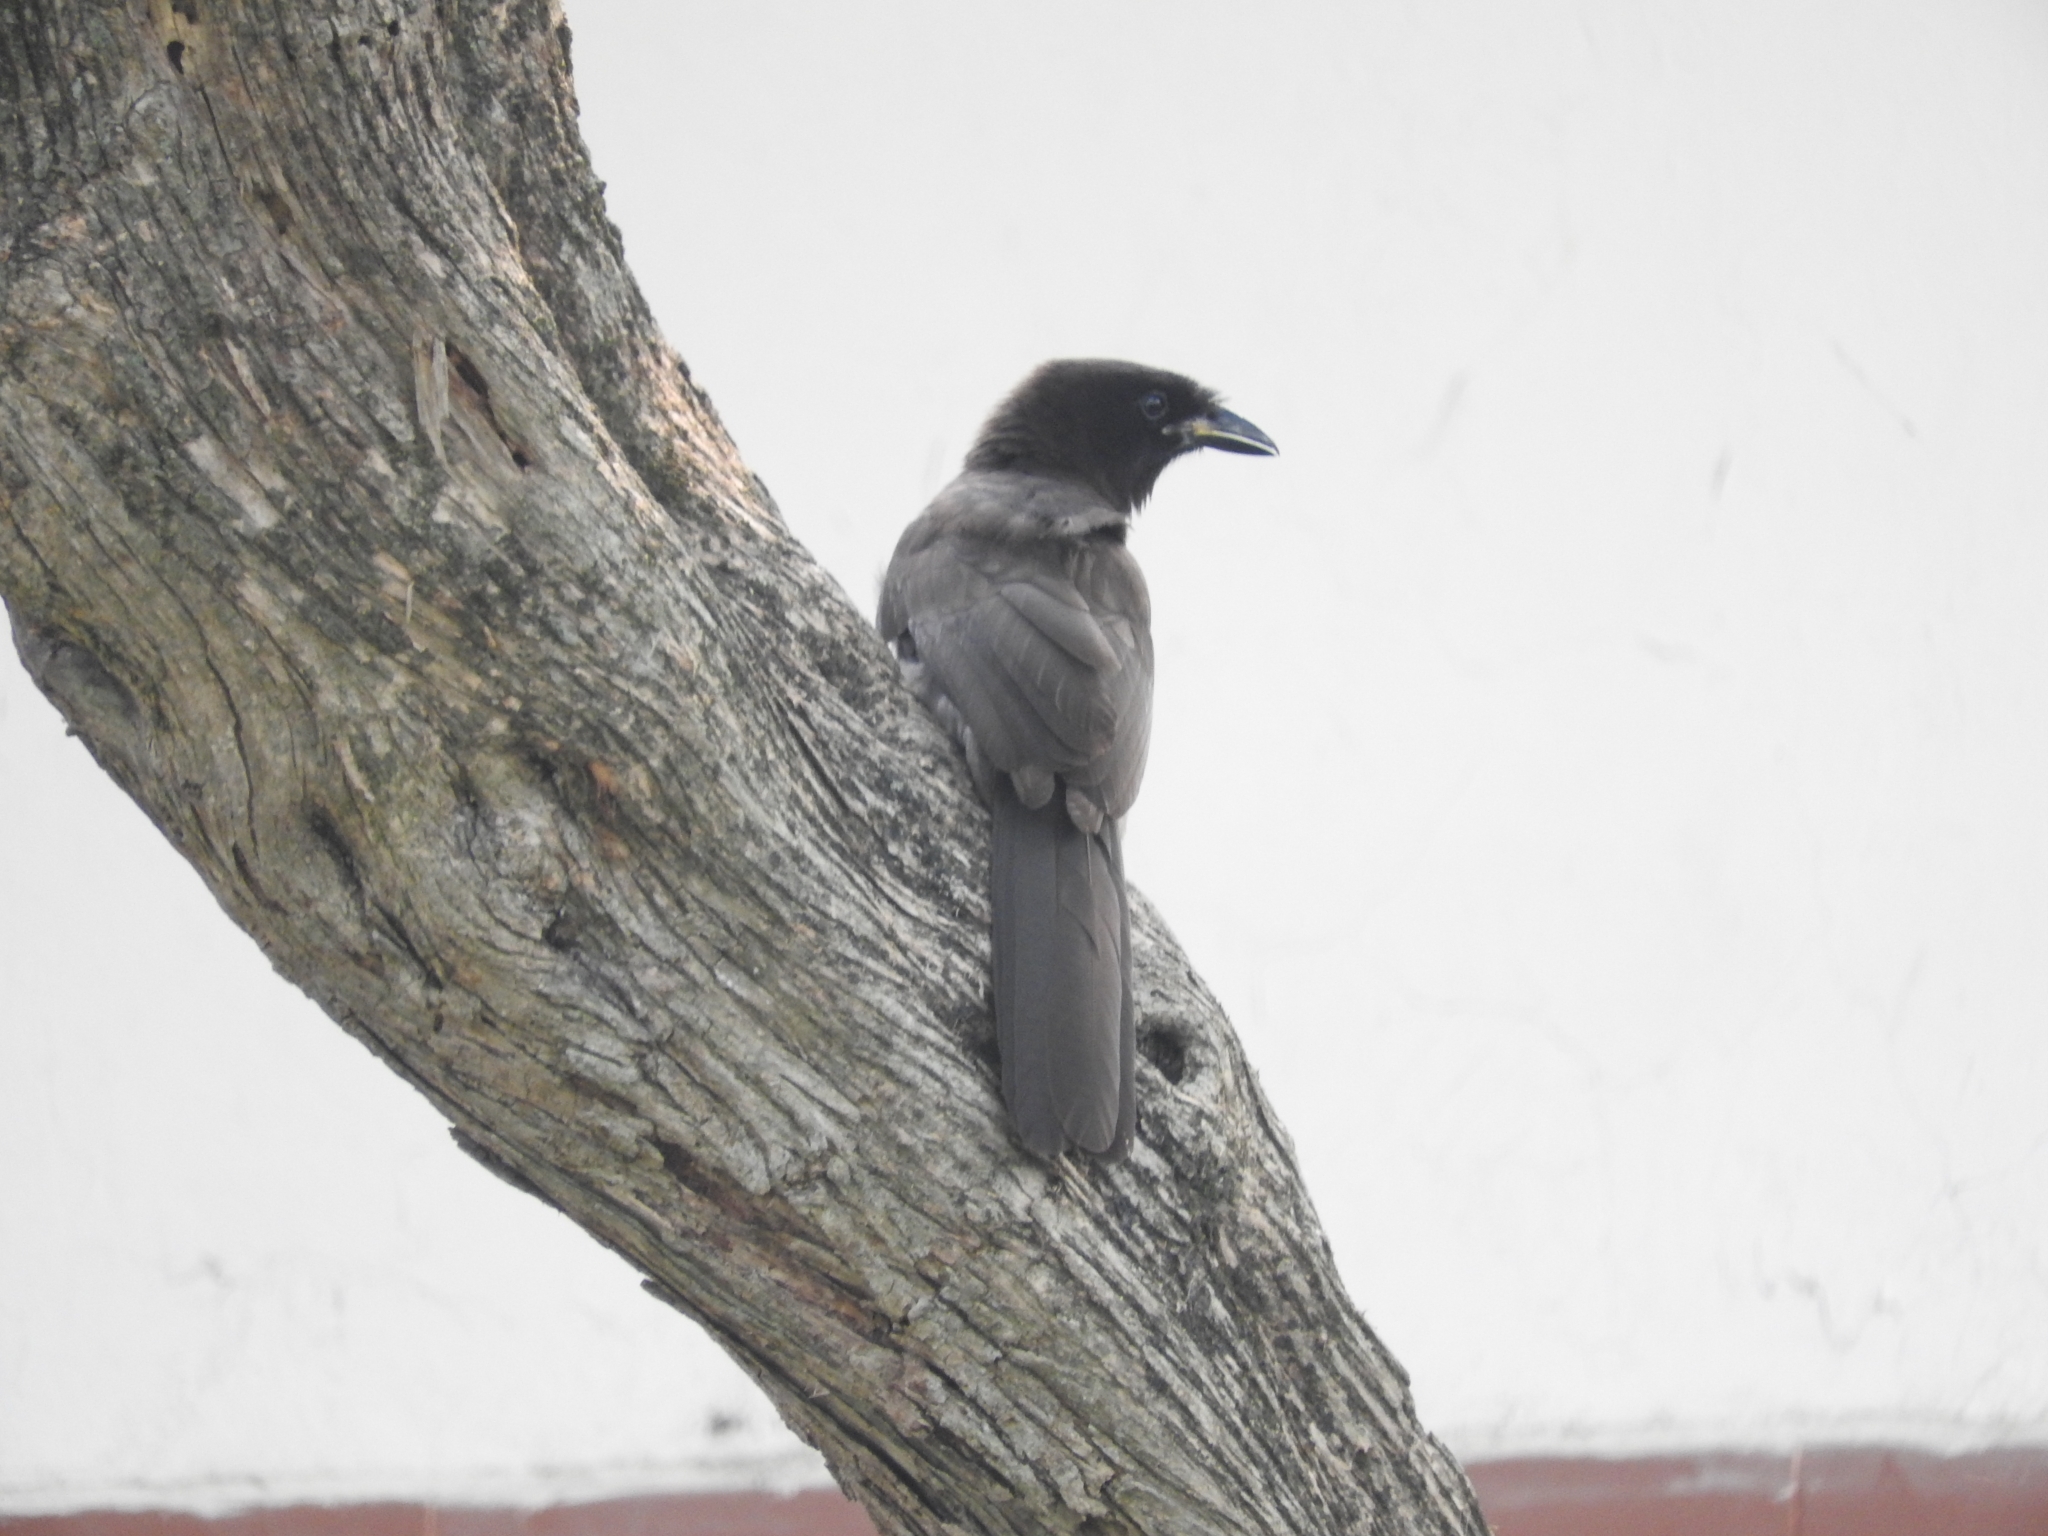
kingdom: Animalia
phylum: Chordata
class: Aves
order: Passeriformes
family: Corvidae
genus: Psilorhinus
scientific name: Psilorhinus morio
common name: Brown jay
